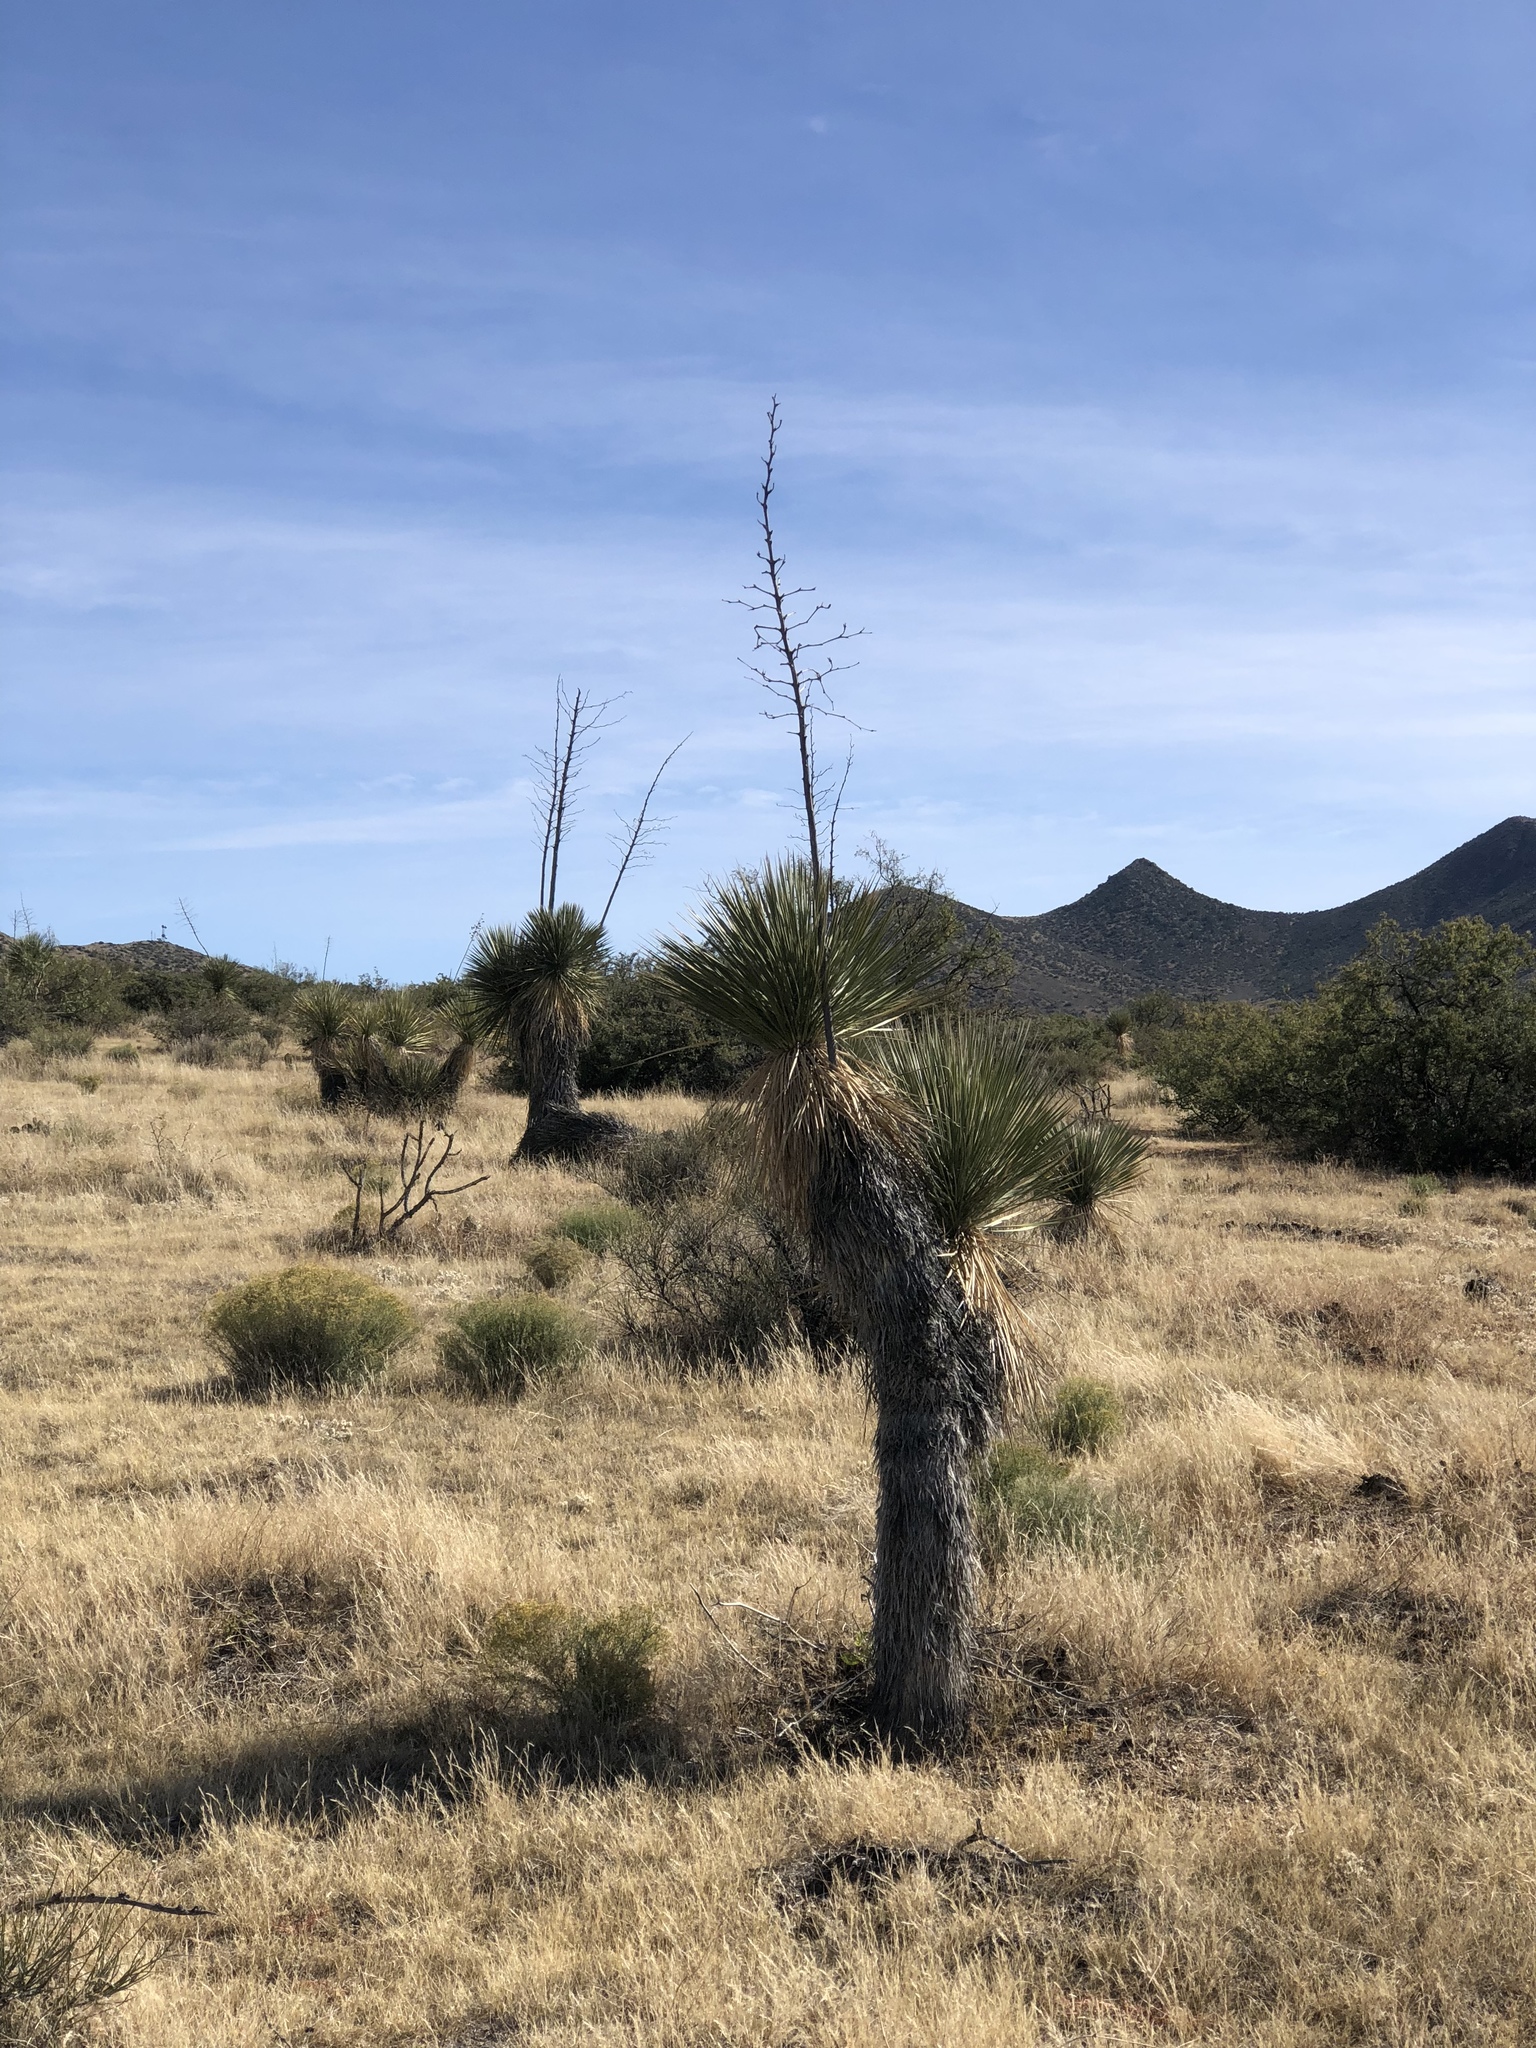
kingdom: Plantae
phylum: Tracheophyta
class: Liliopsida
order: Asparagales
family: Asparagaceae
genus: Yucca
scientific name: Yucca elata
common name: Palmella
